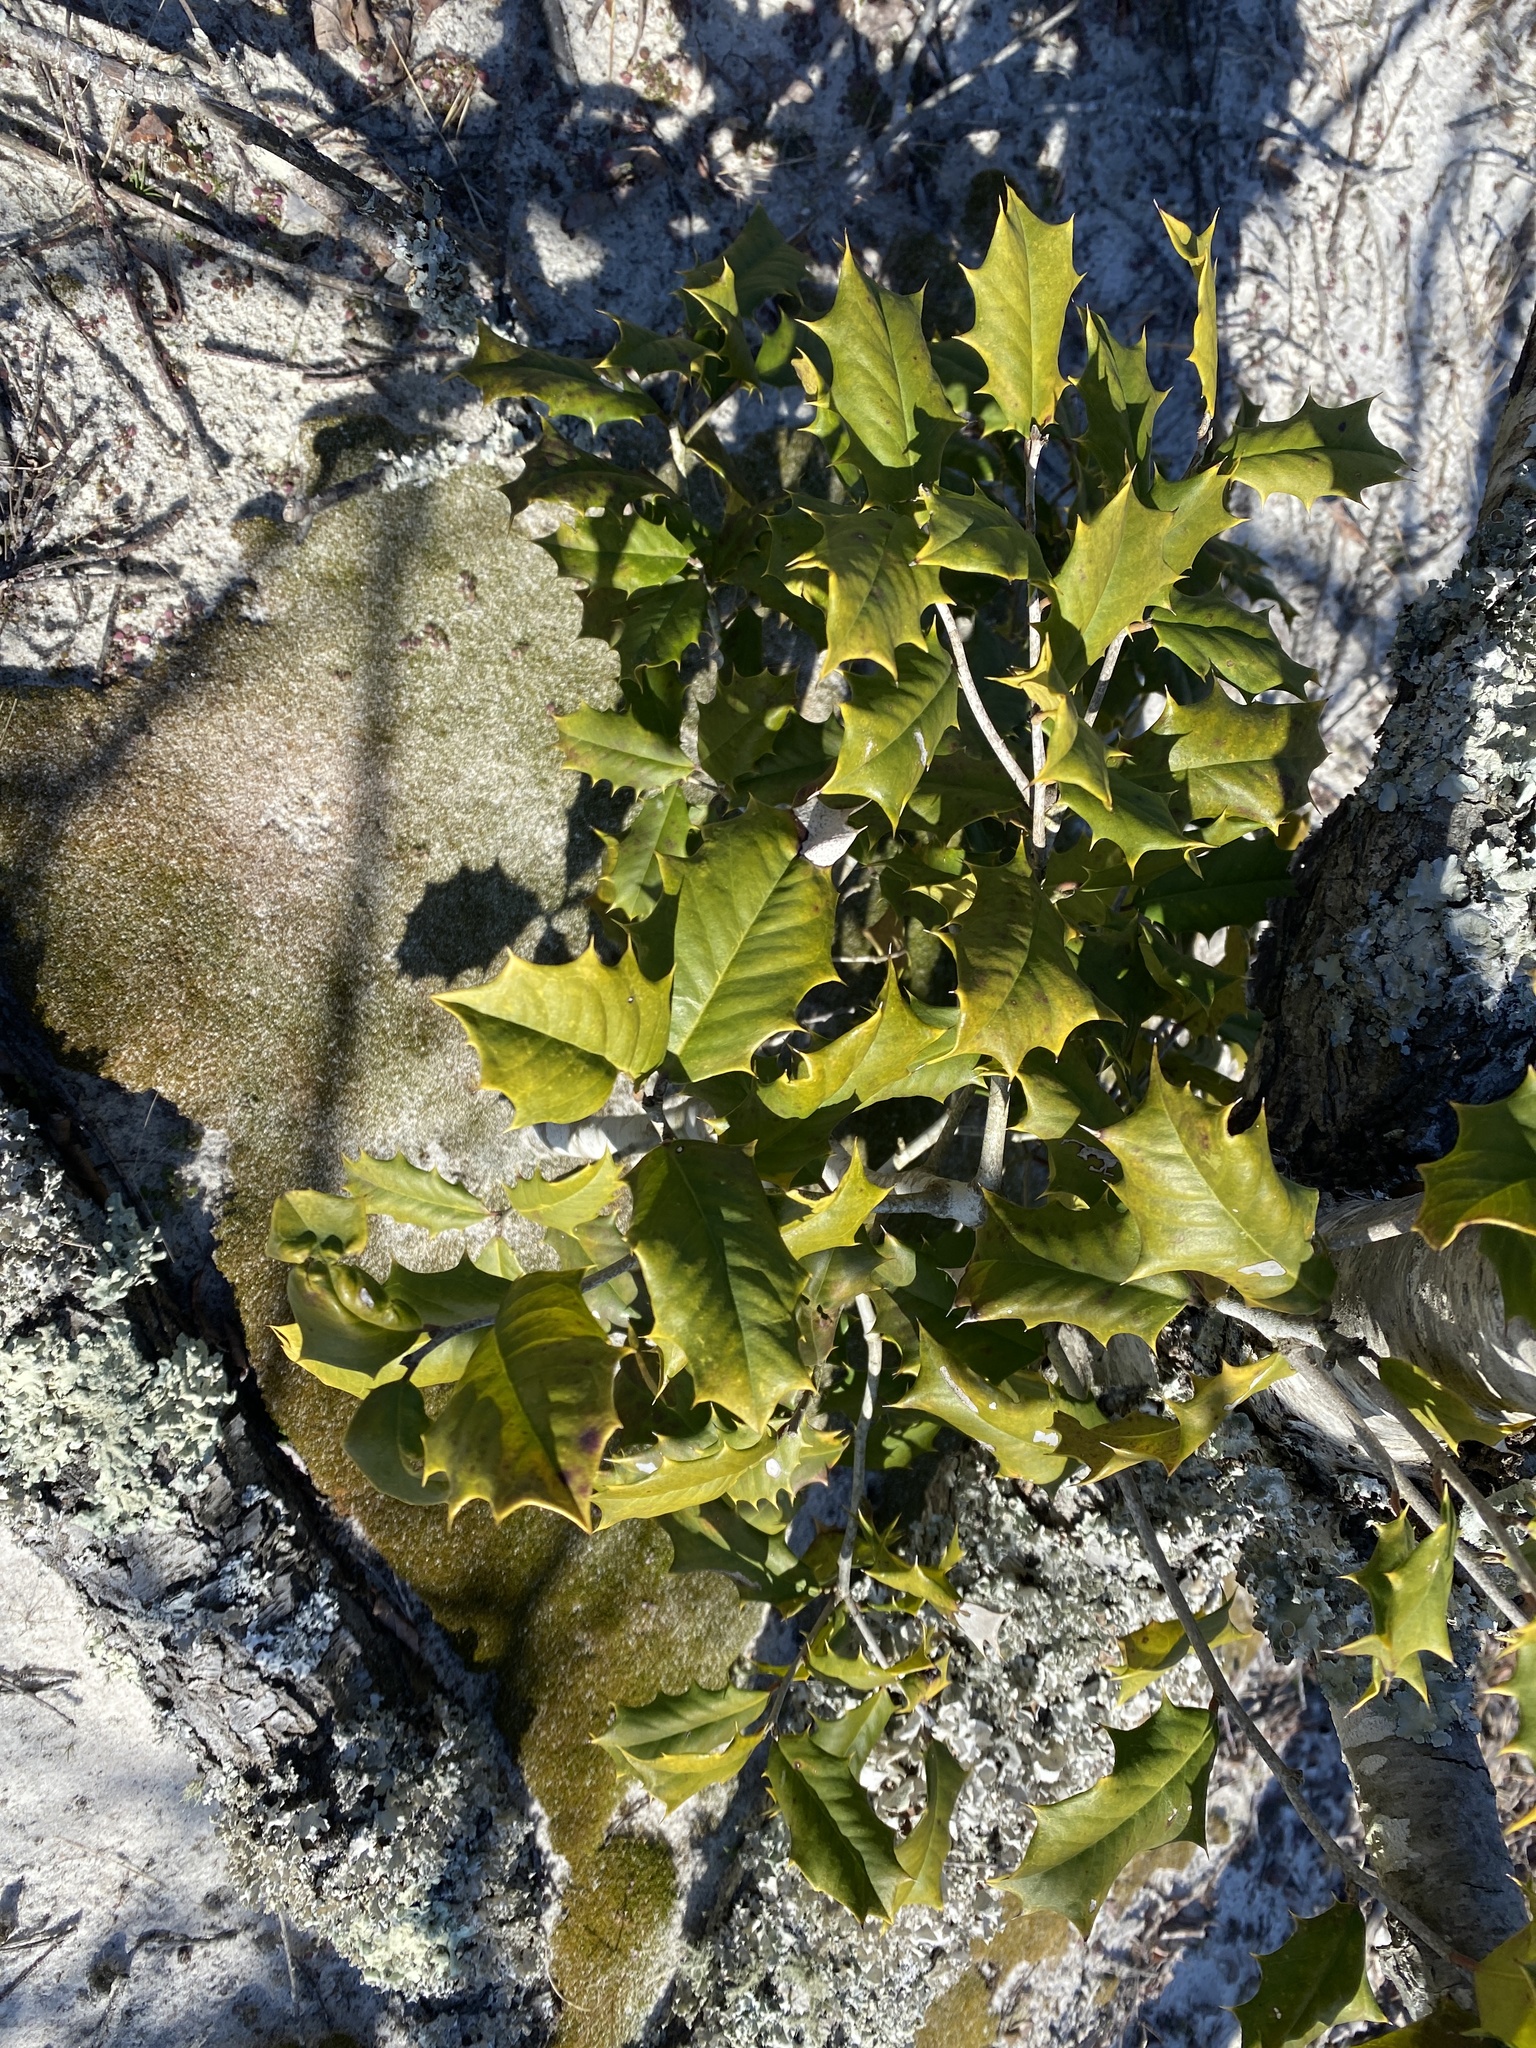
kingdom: Plantae
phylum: Tracheophyta
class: Magnoliopsida
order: Aquifoliales
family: Aquifoliaceae
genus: Ilex
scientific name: Ilex opaca
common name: American holly
